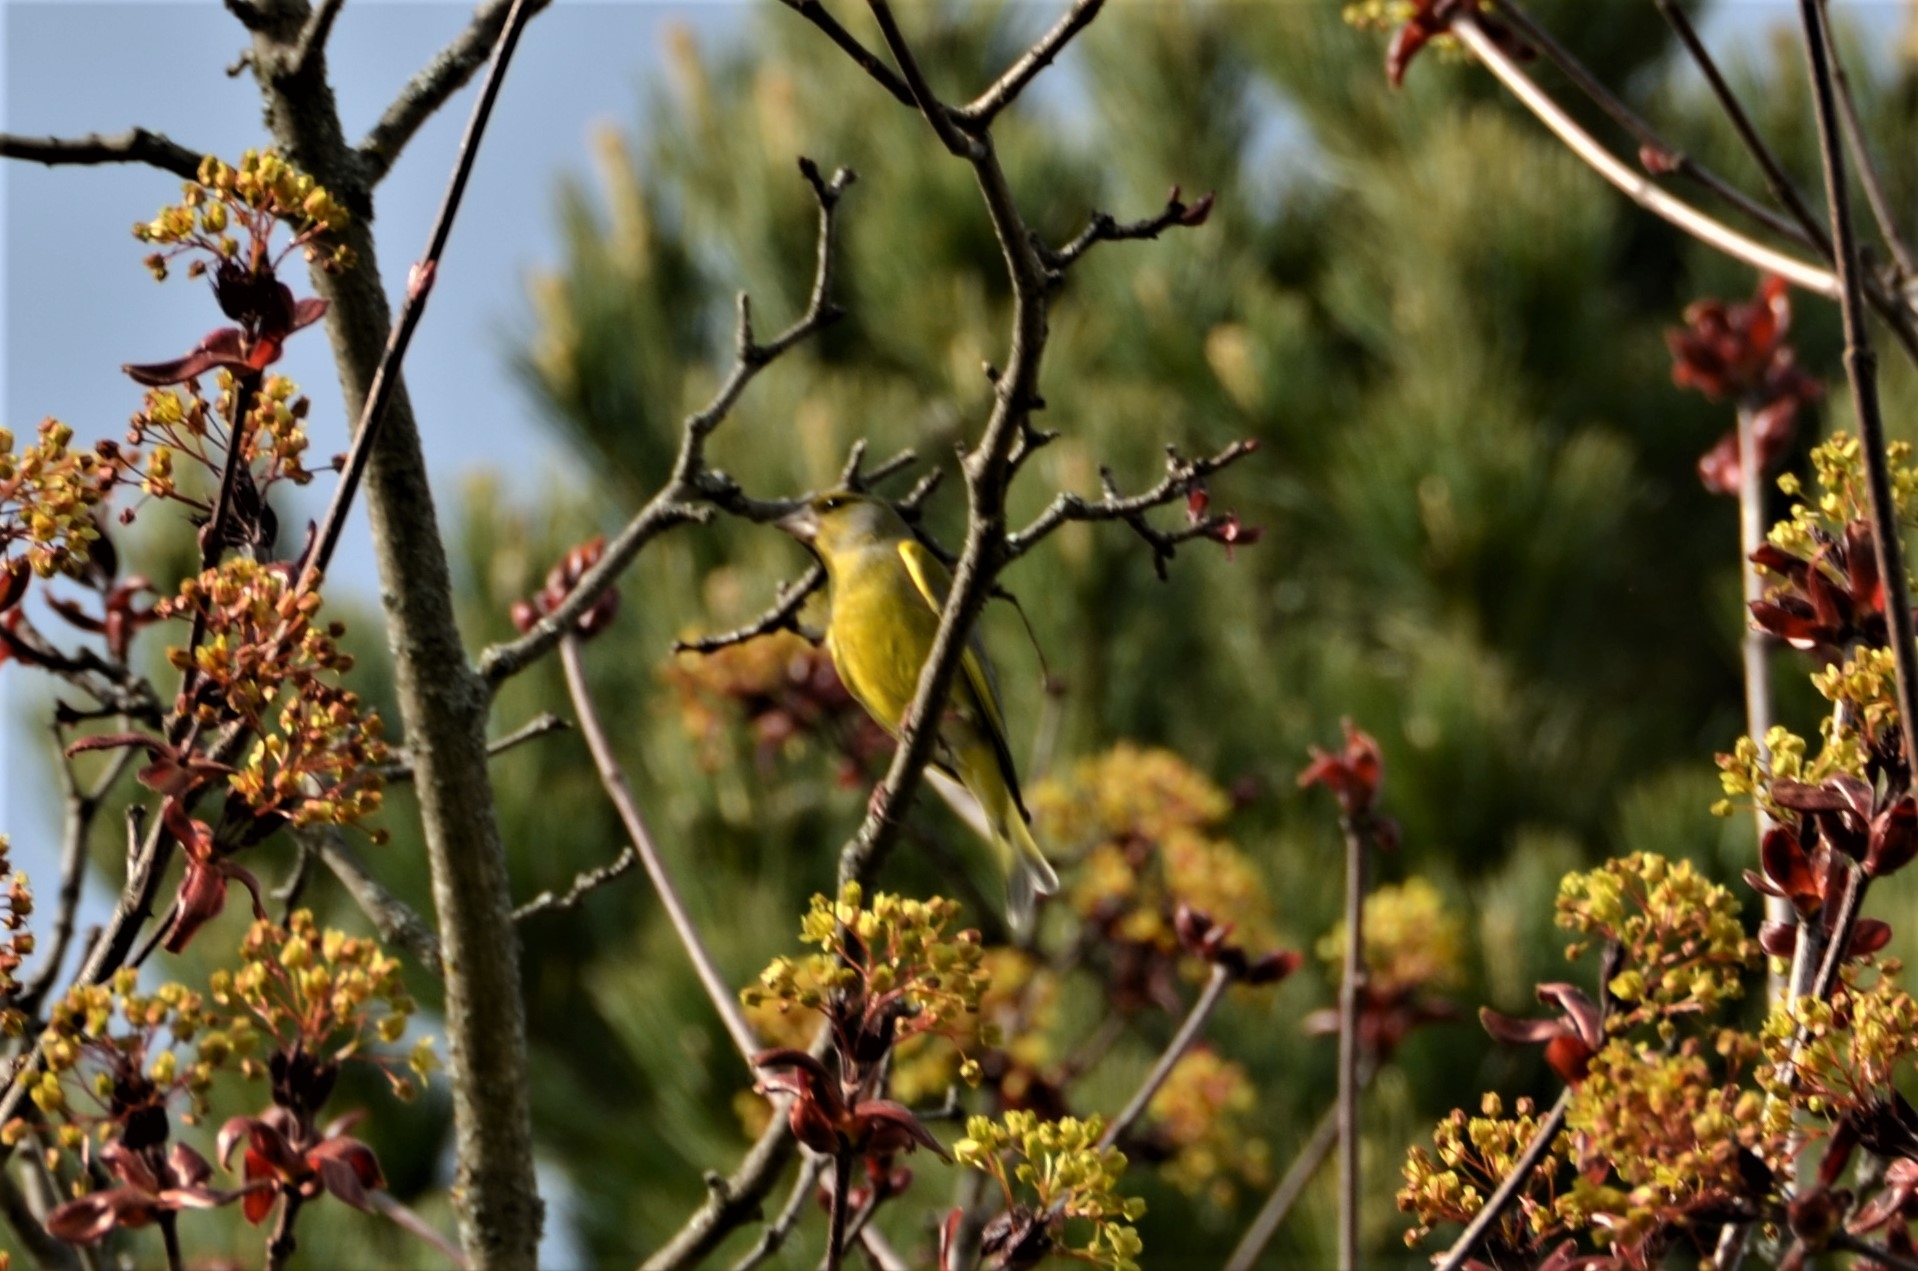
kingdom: Plantae
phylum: Tracheophyta
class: Liliopsida
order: Poales
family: Poaceae
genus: Chloris
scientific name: Chloris chloris
